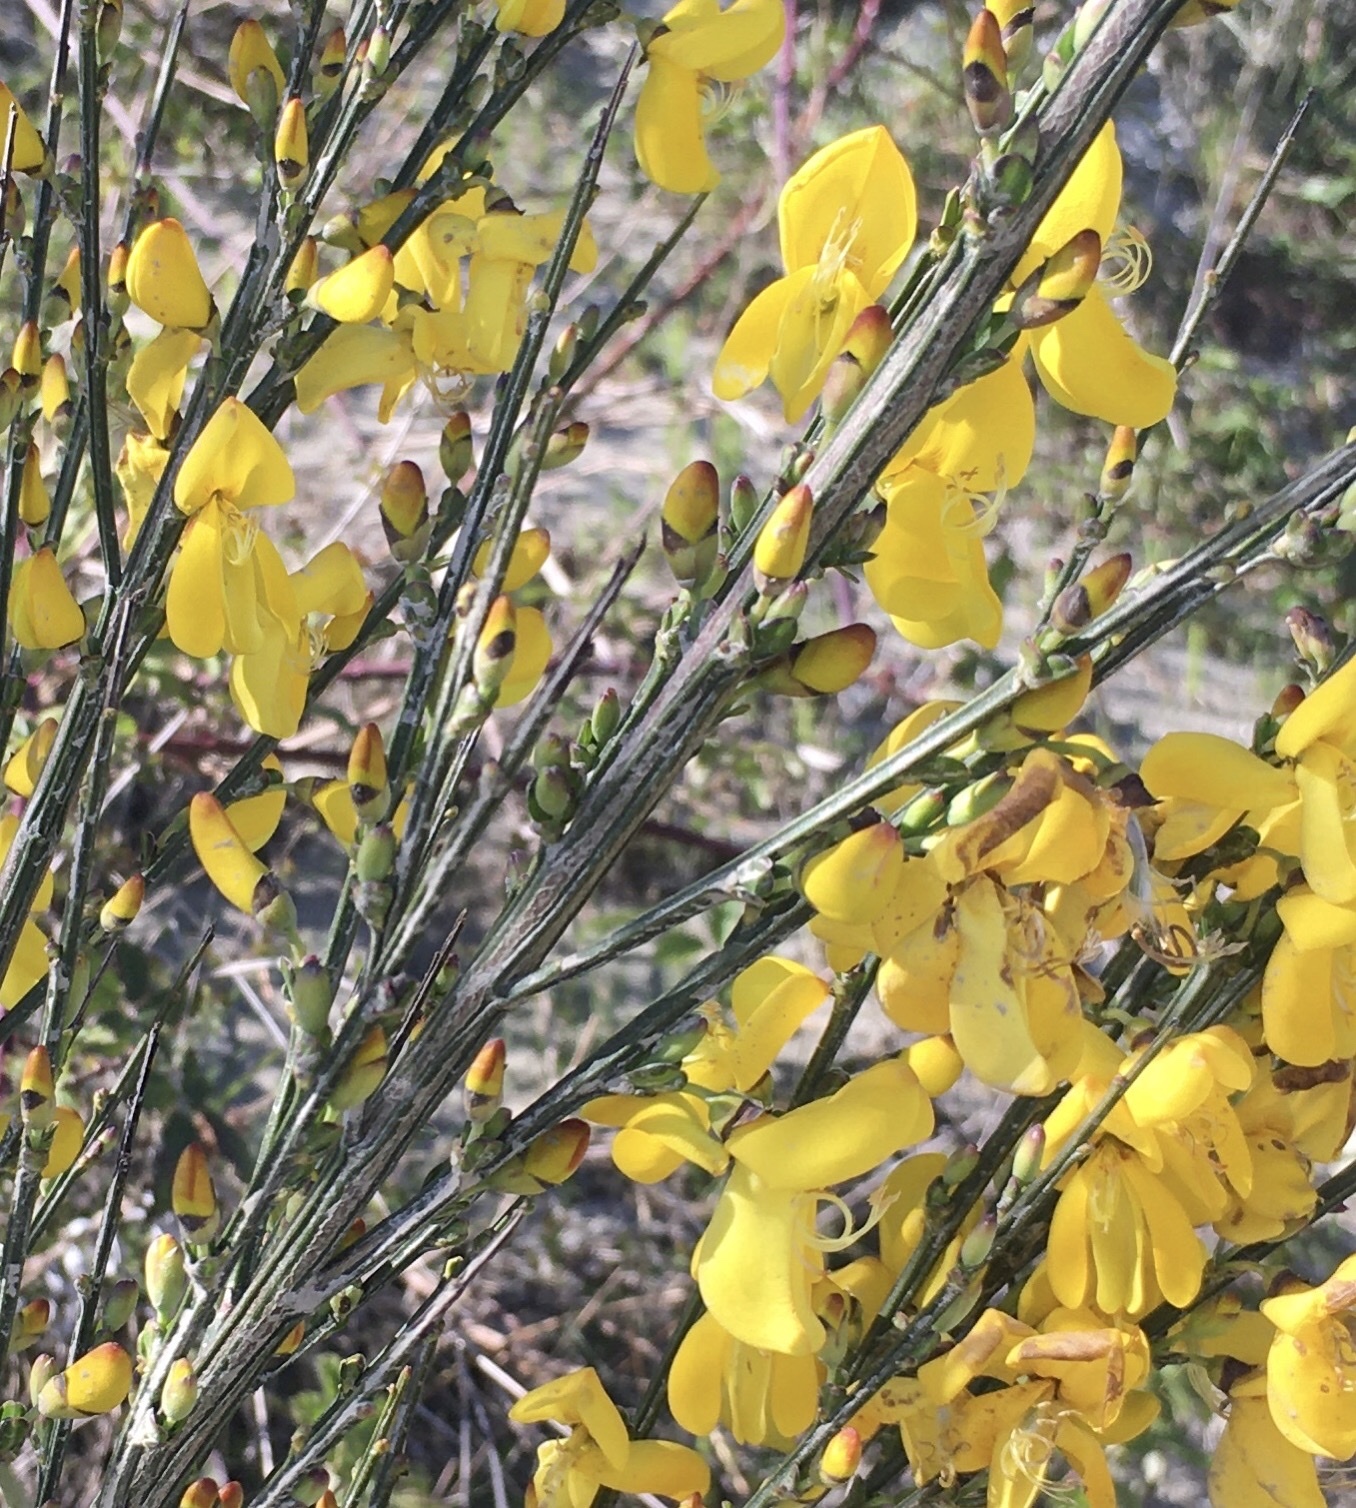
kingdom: Plantae
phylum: Tracheophyta
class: Magnoliopsida
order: Fabales
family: Fabaceae
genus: Cytisus
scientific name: Cytisus scoparius
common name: Scotch broom
